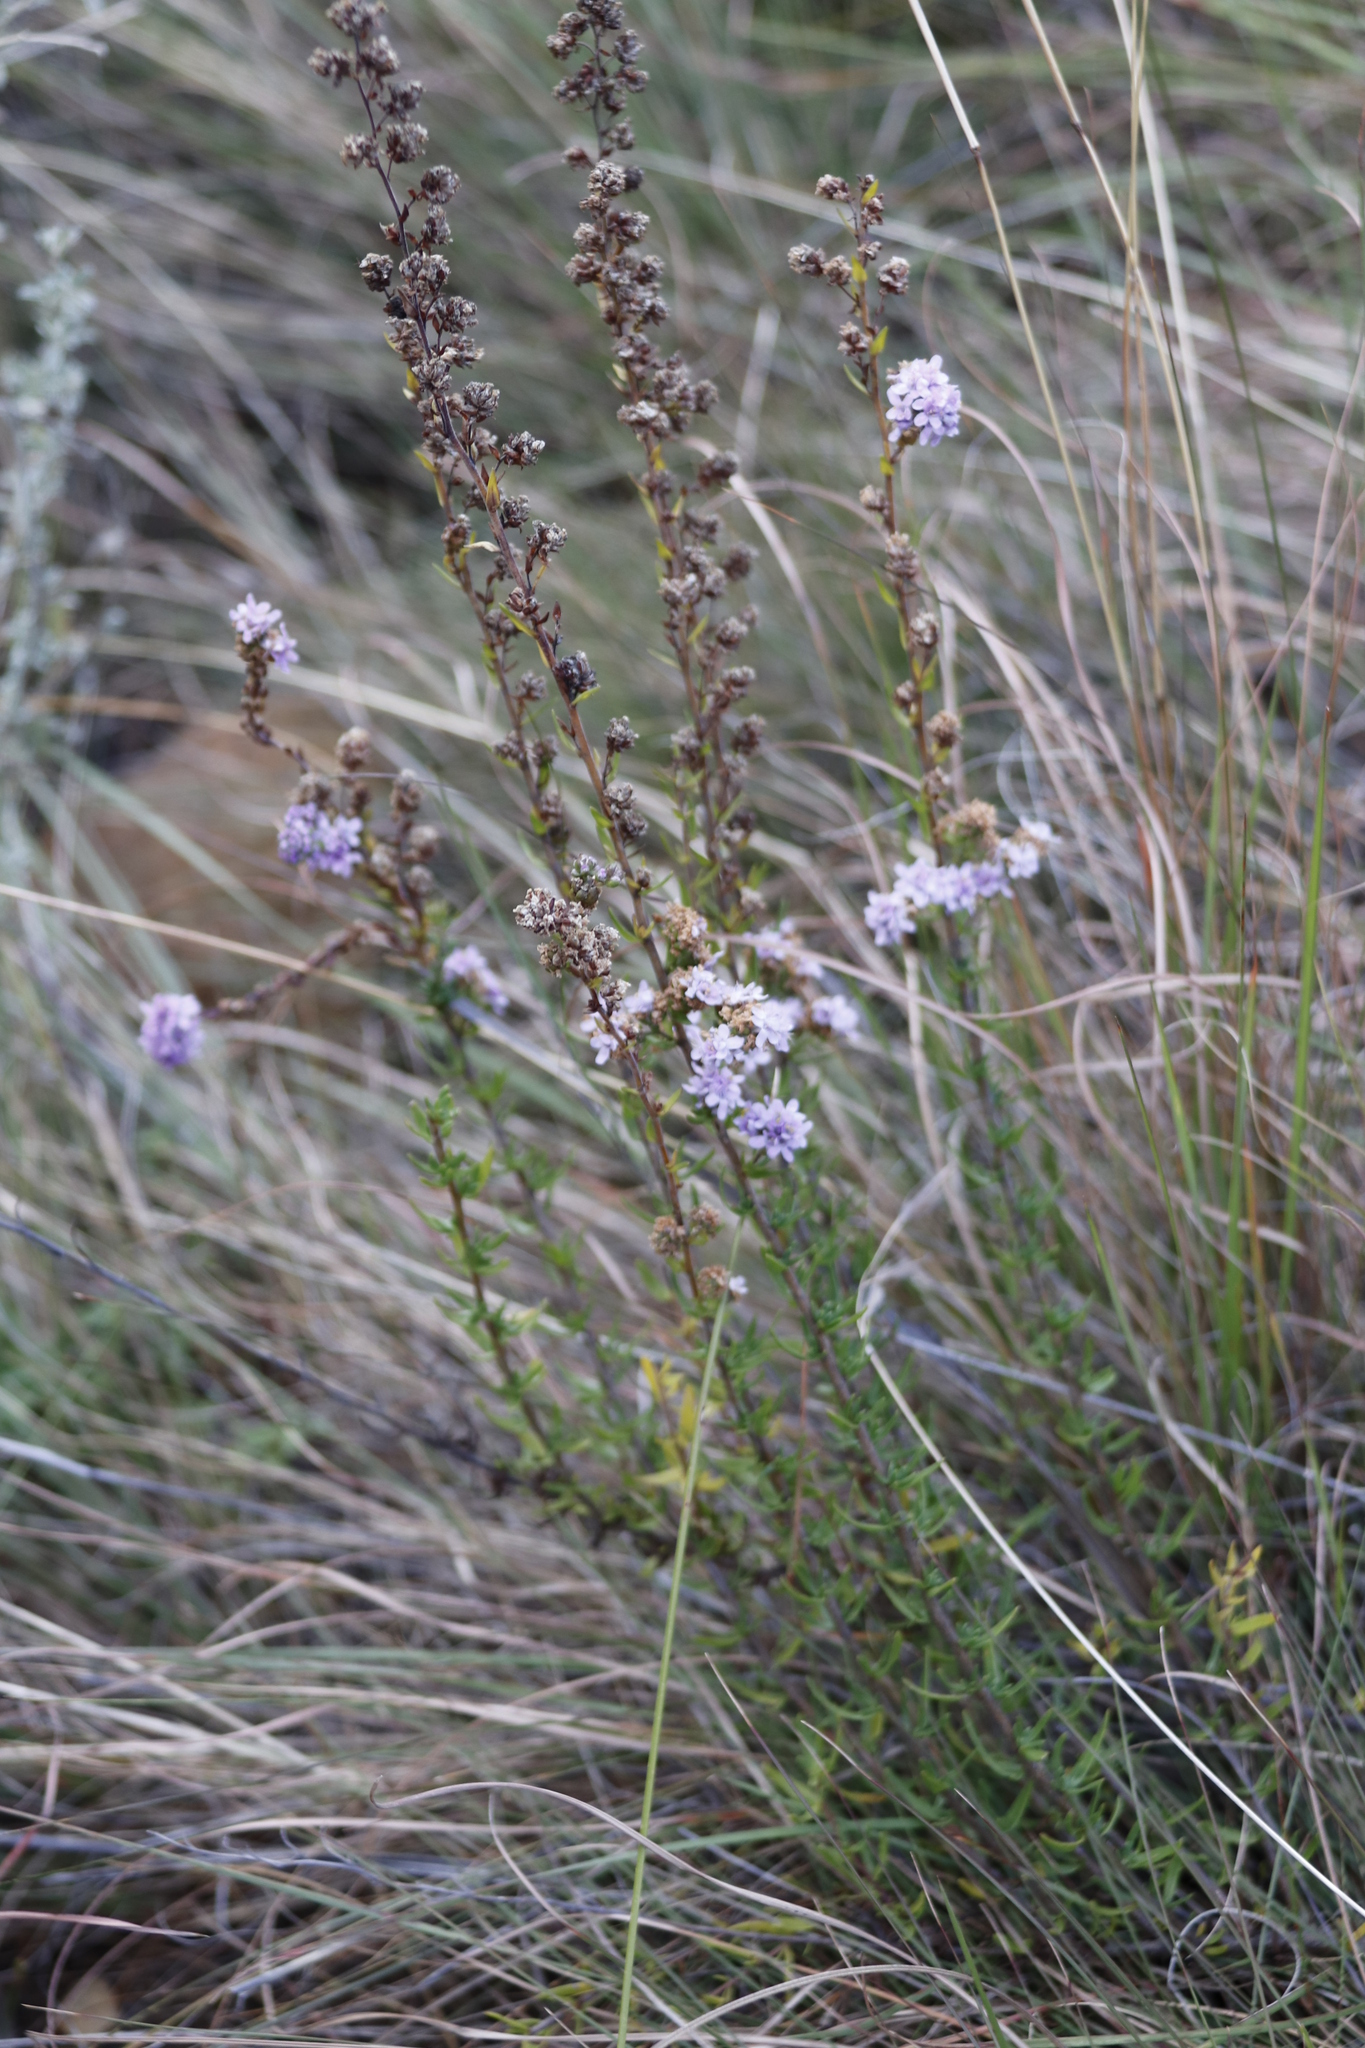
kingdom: Plantae
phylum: Tracheophyta
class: Magnoliopsida
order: Lamiales
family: Scrophulariaceae
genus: Selago
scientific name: Selago flanaganii
